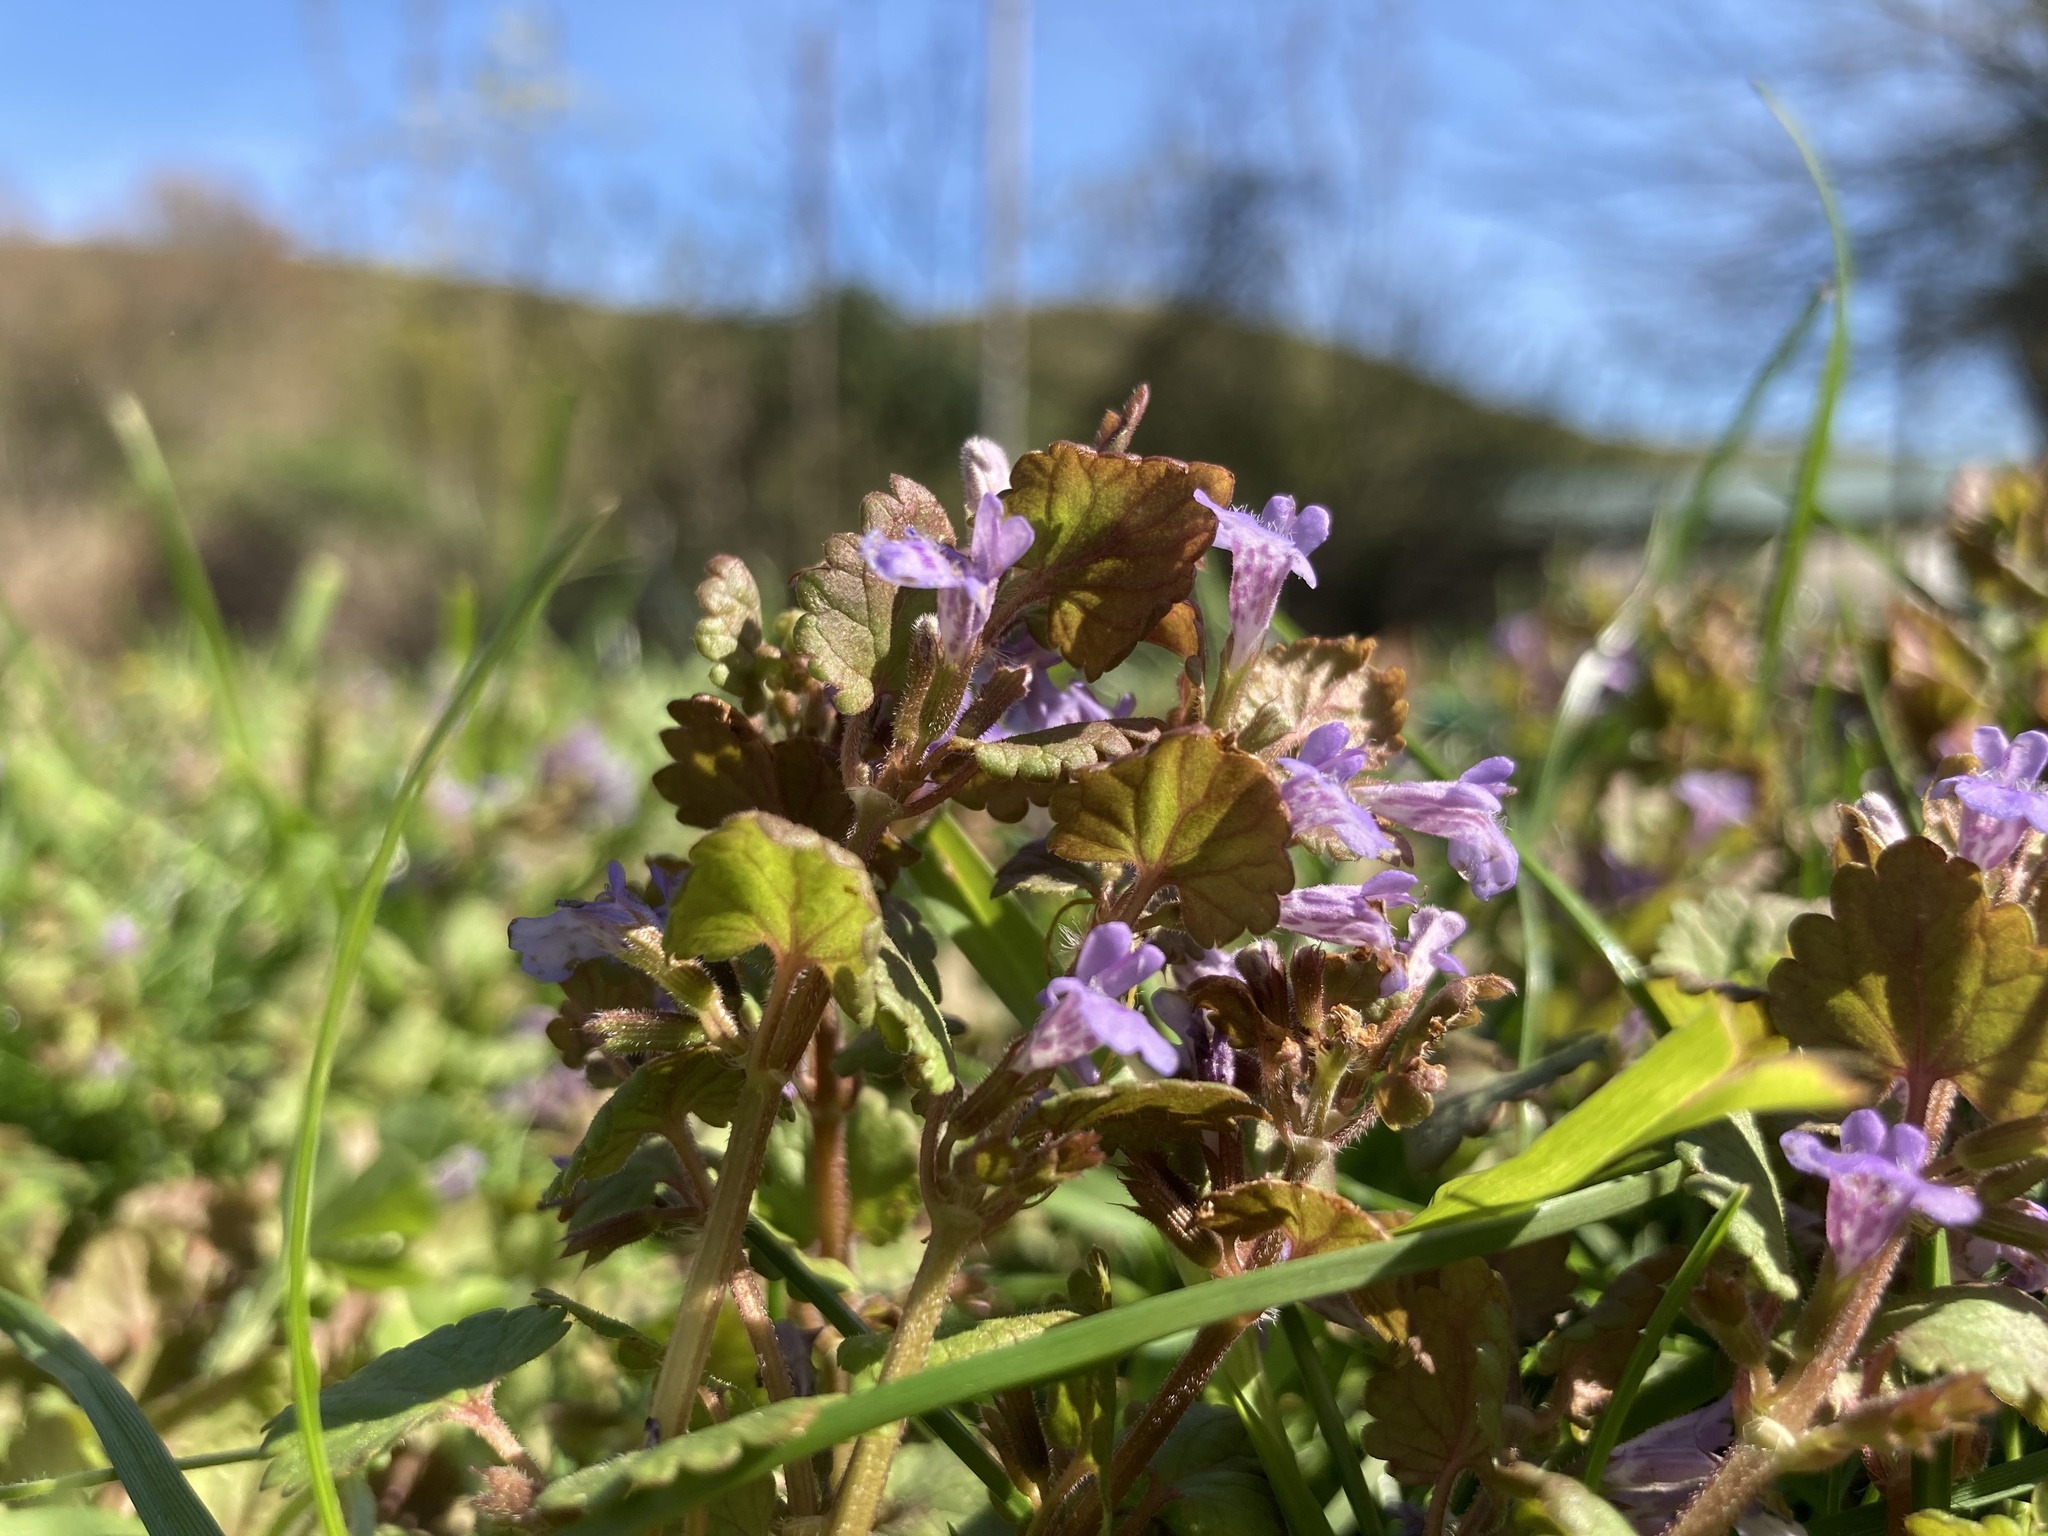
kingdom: Plantae
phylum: Tracheophyta
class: Magnoliopsida
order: Lamiales
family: Lamiaceae
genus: Glechoma
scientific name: Glechoma hederacea
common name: Ground ivy
